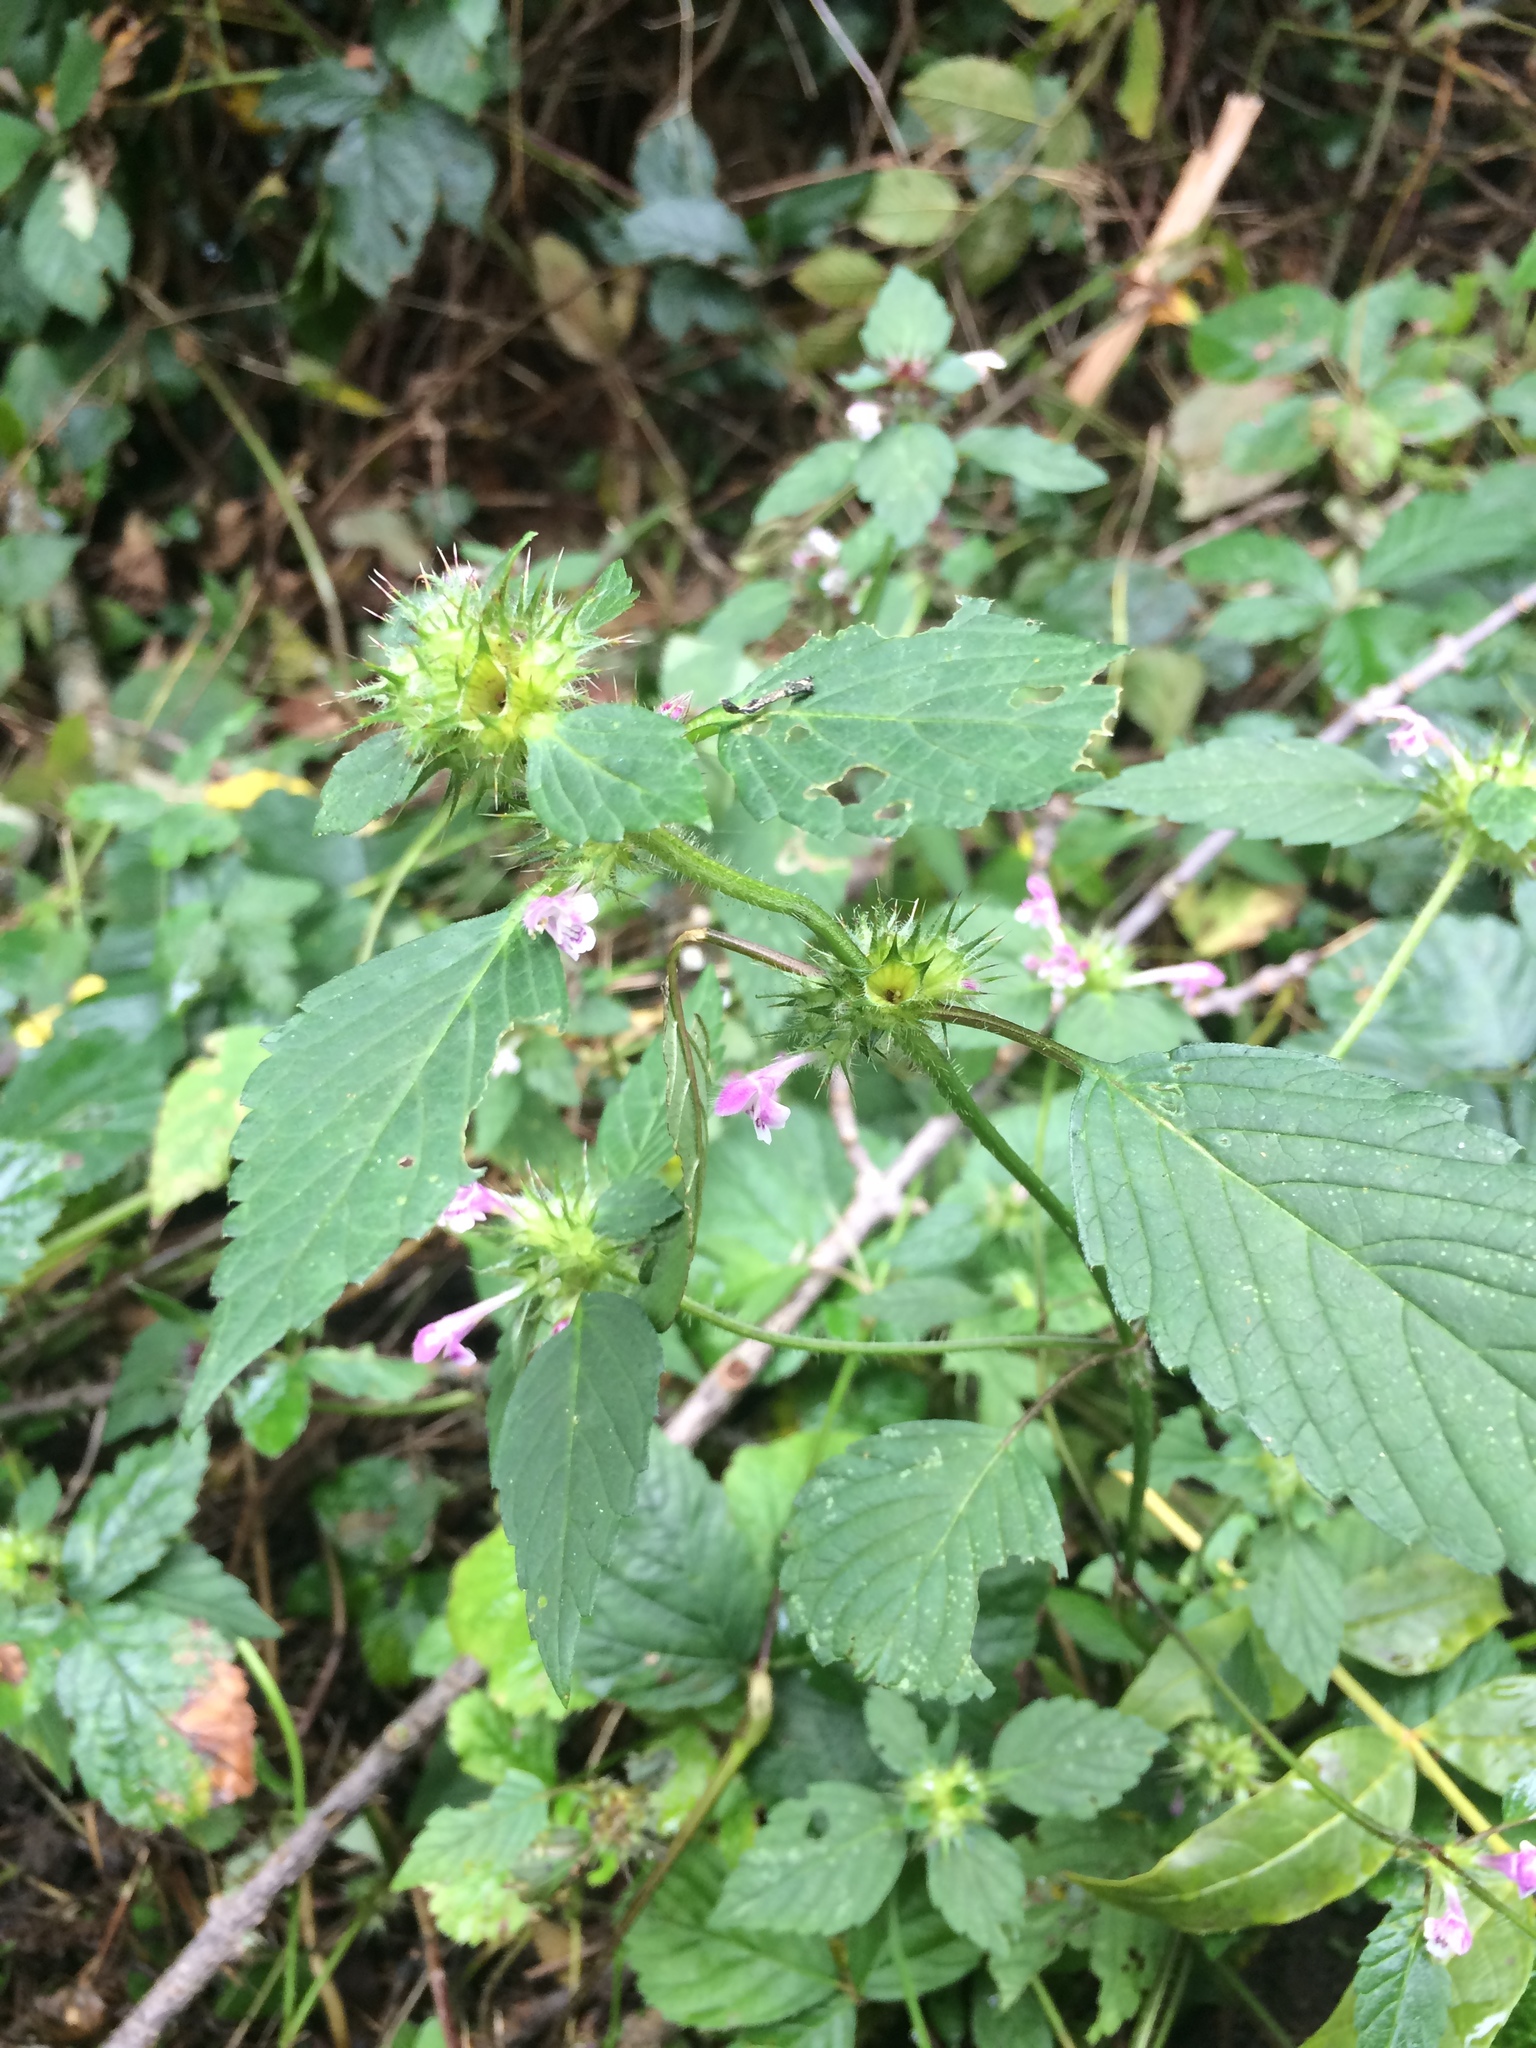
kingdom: Plantae
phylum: Tracheophyta
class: Magnoliopsida
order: Lamiales
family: Lamiaceae
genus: Galeopsis
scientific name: Galeopsis tetrahit
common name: Common hemp-nettle
